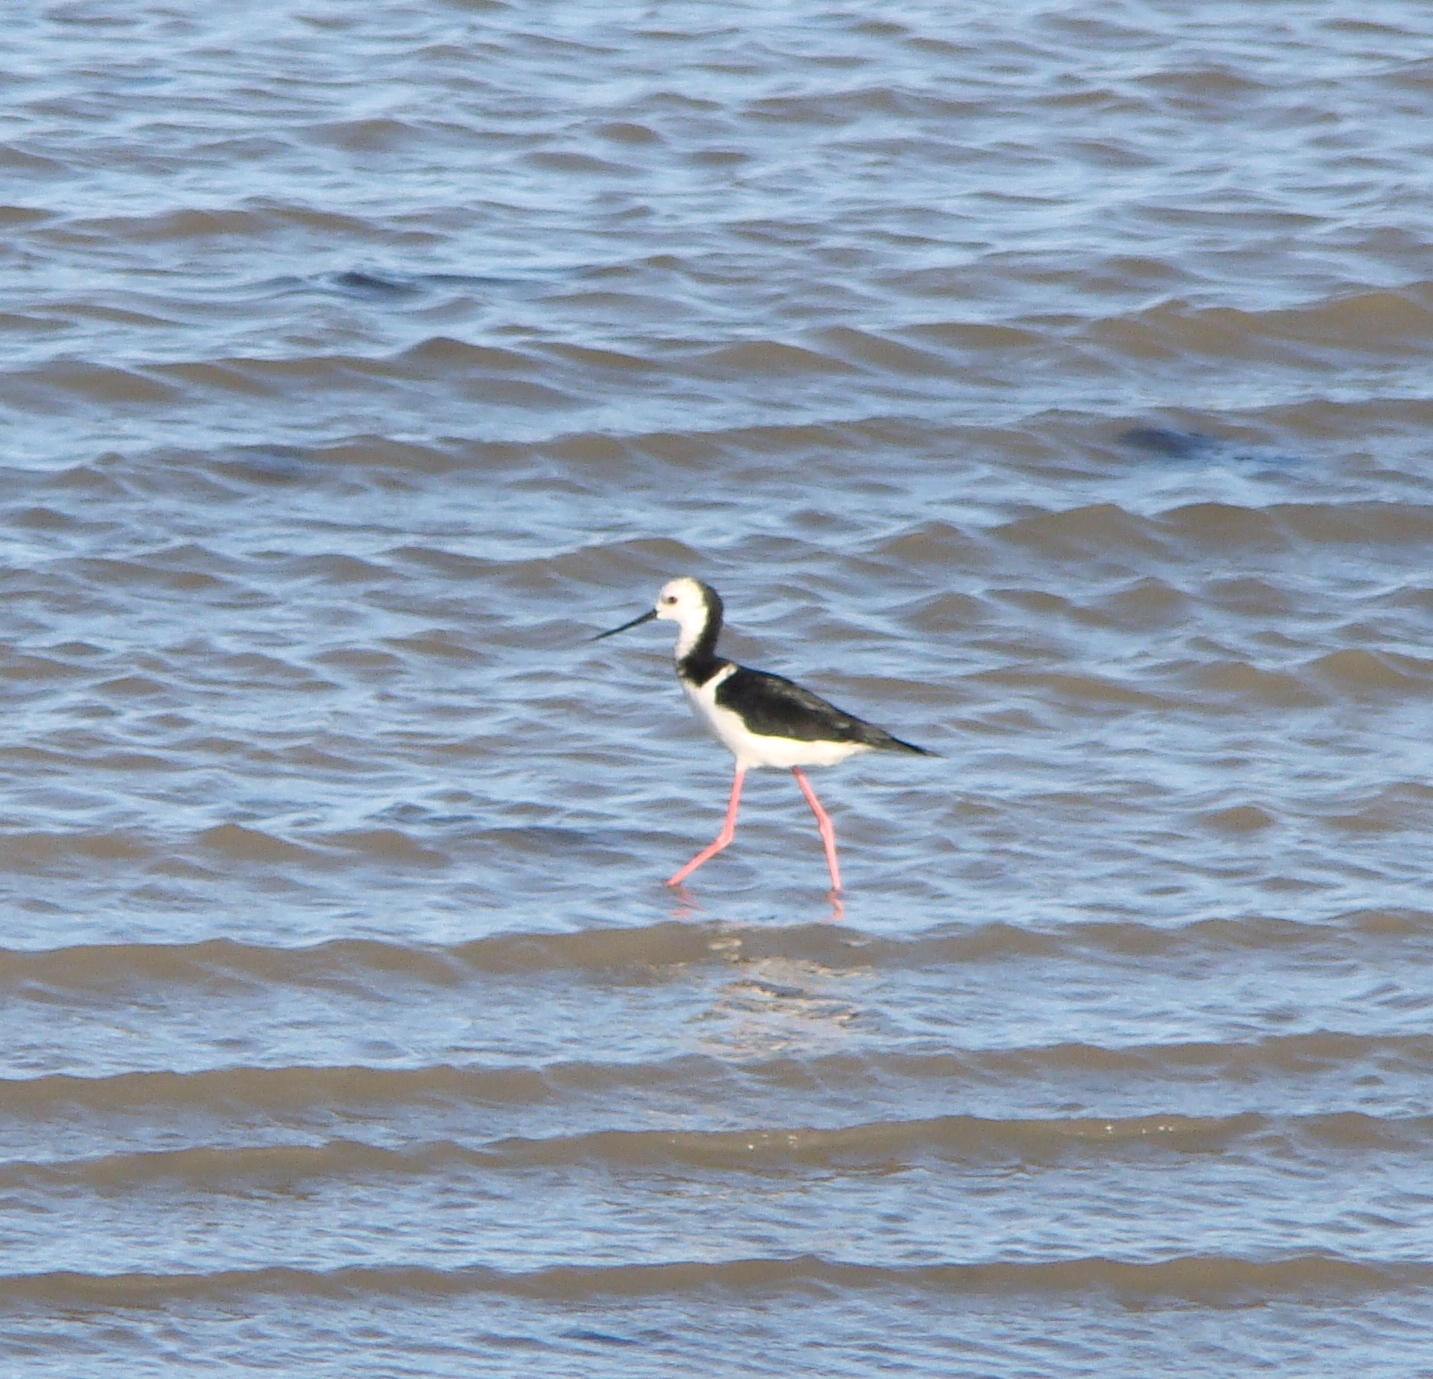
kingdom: Animalia
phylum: Chordata
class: Aves
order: Charadriiformes
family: Recurvirostridae
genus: Himantopus
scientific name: Himantopus leucocephalus
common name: White-headed stilt
